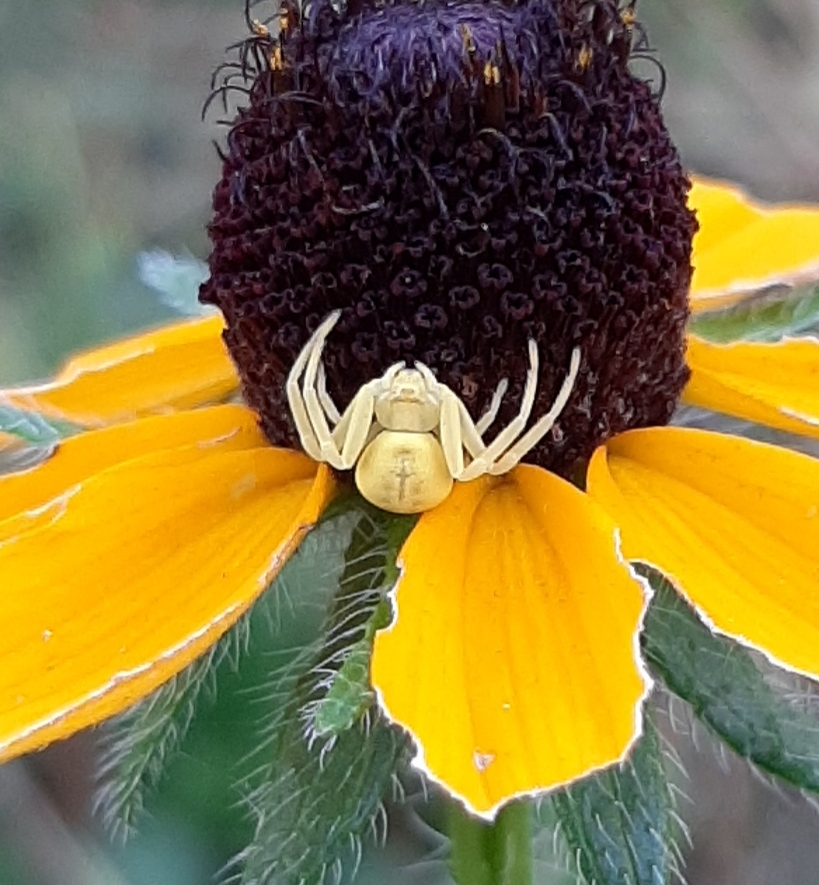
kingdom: Animalia
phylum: Arthropoda
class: Arachnida
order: Araneae
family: Thomisidae
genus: Misumena
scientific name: Misumena vatia
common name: Goldenrod crab spider
